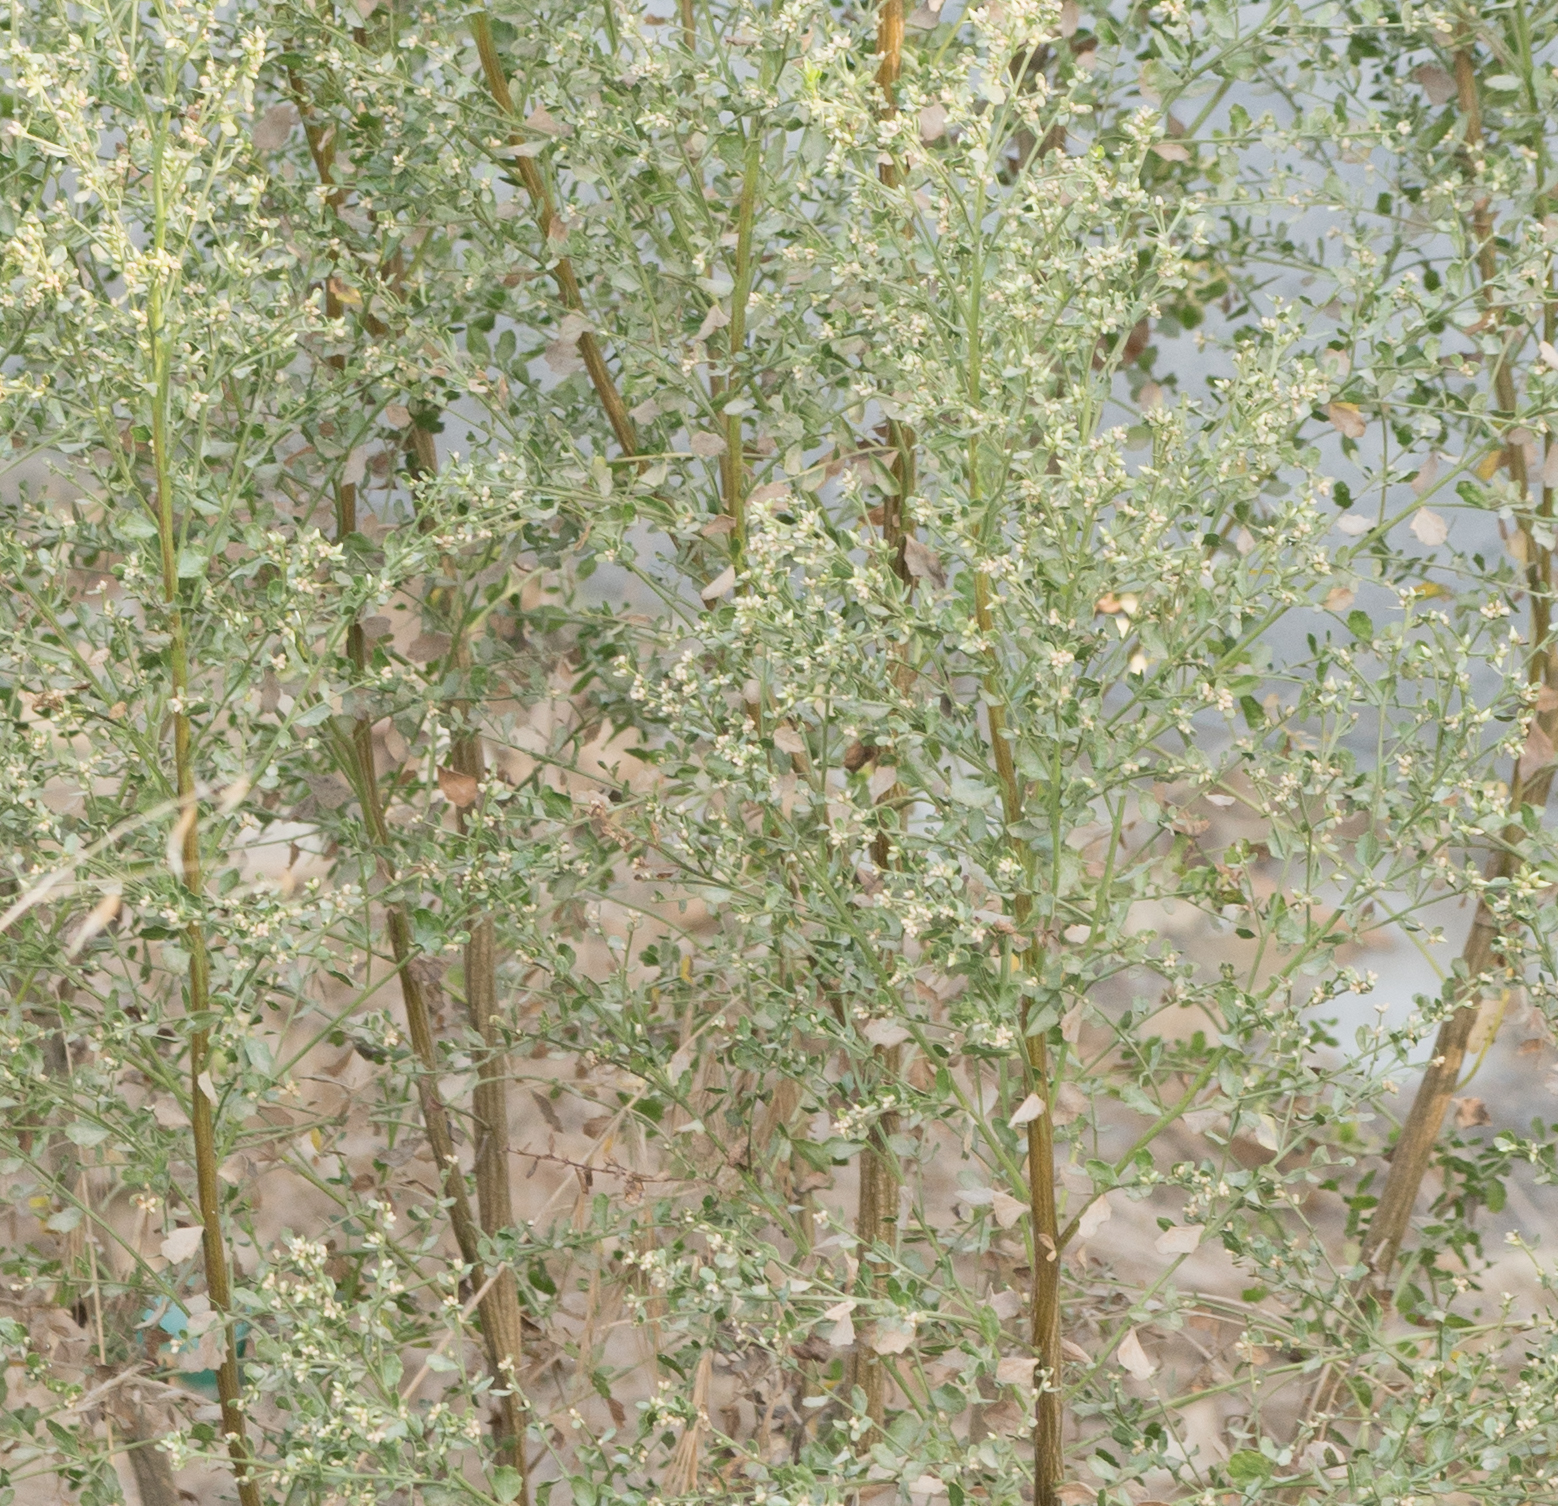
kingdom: Plantae
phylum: Tracheophyta
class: Magnoliopsida
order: Asterales
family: Asteraceae
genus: Baccharis
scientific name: Baccharis pilularis
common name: Coyotebrush
